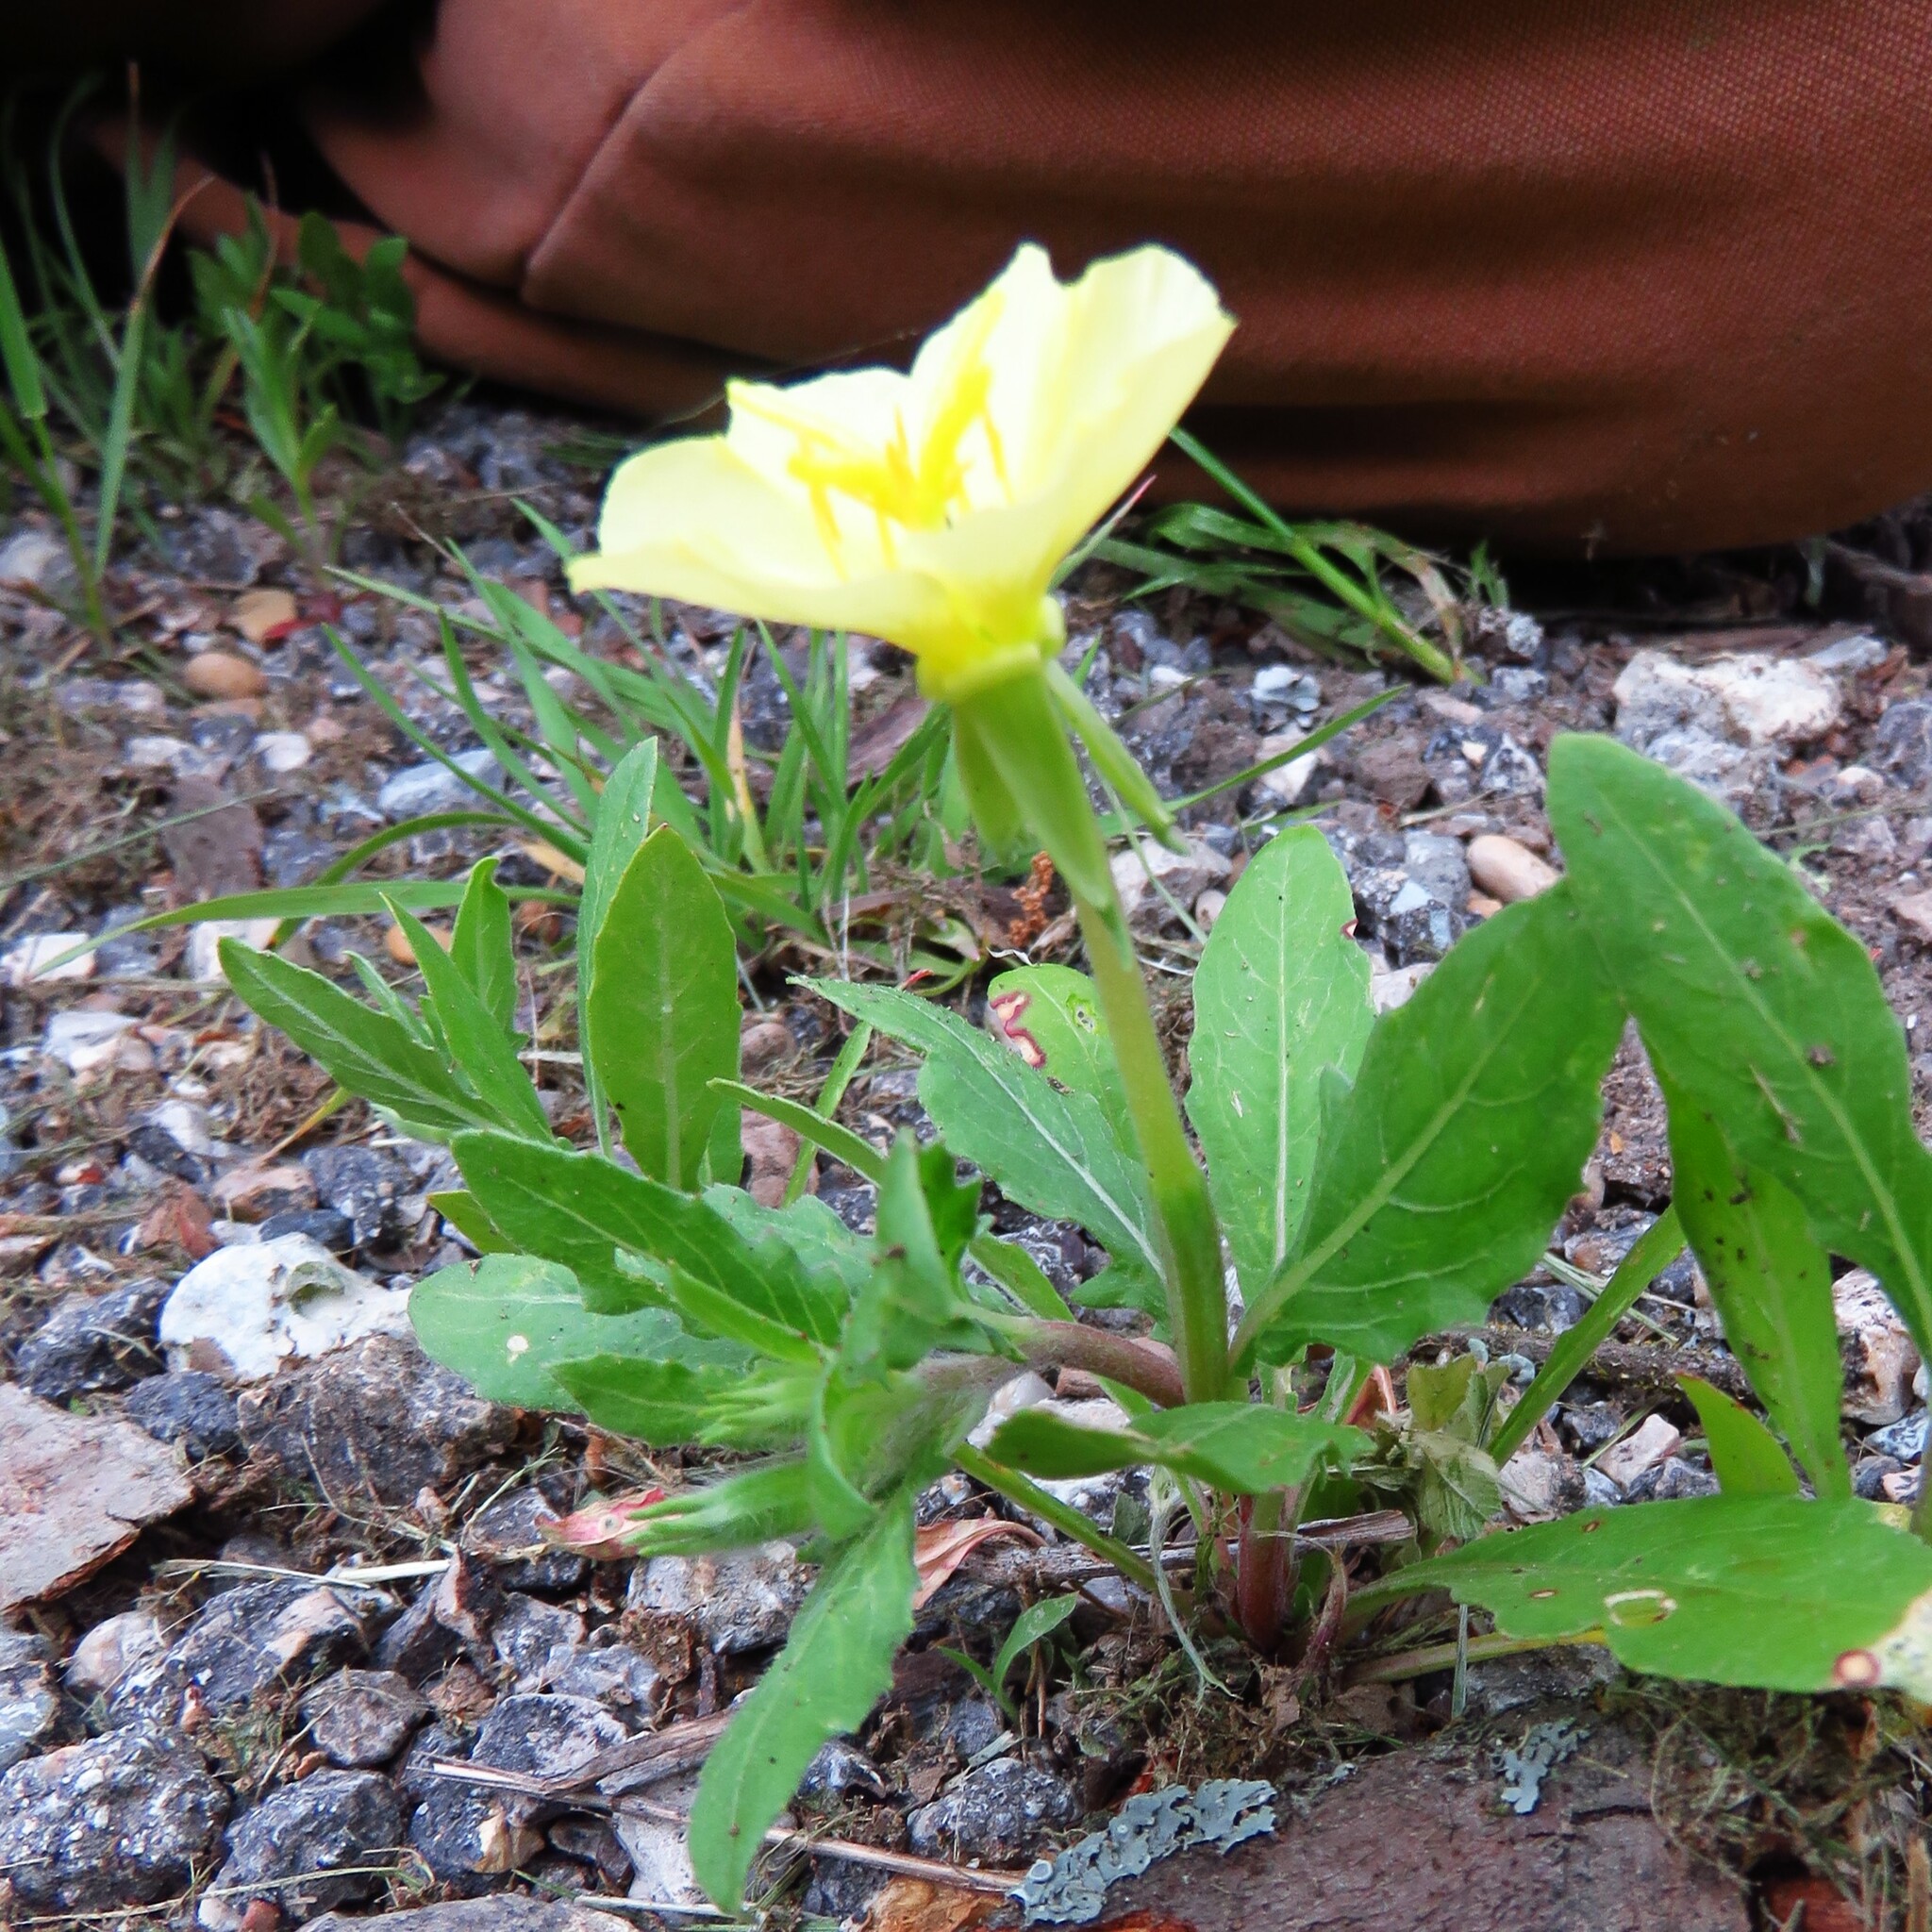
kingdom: Plantae
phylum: Tracheophyta
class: Magnoliopsida
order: Myrtales
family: Onagraceae
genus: Oenothera
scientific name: Oenothera laciniata
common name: Cut-leaved evening-primrose
